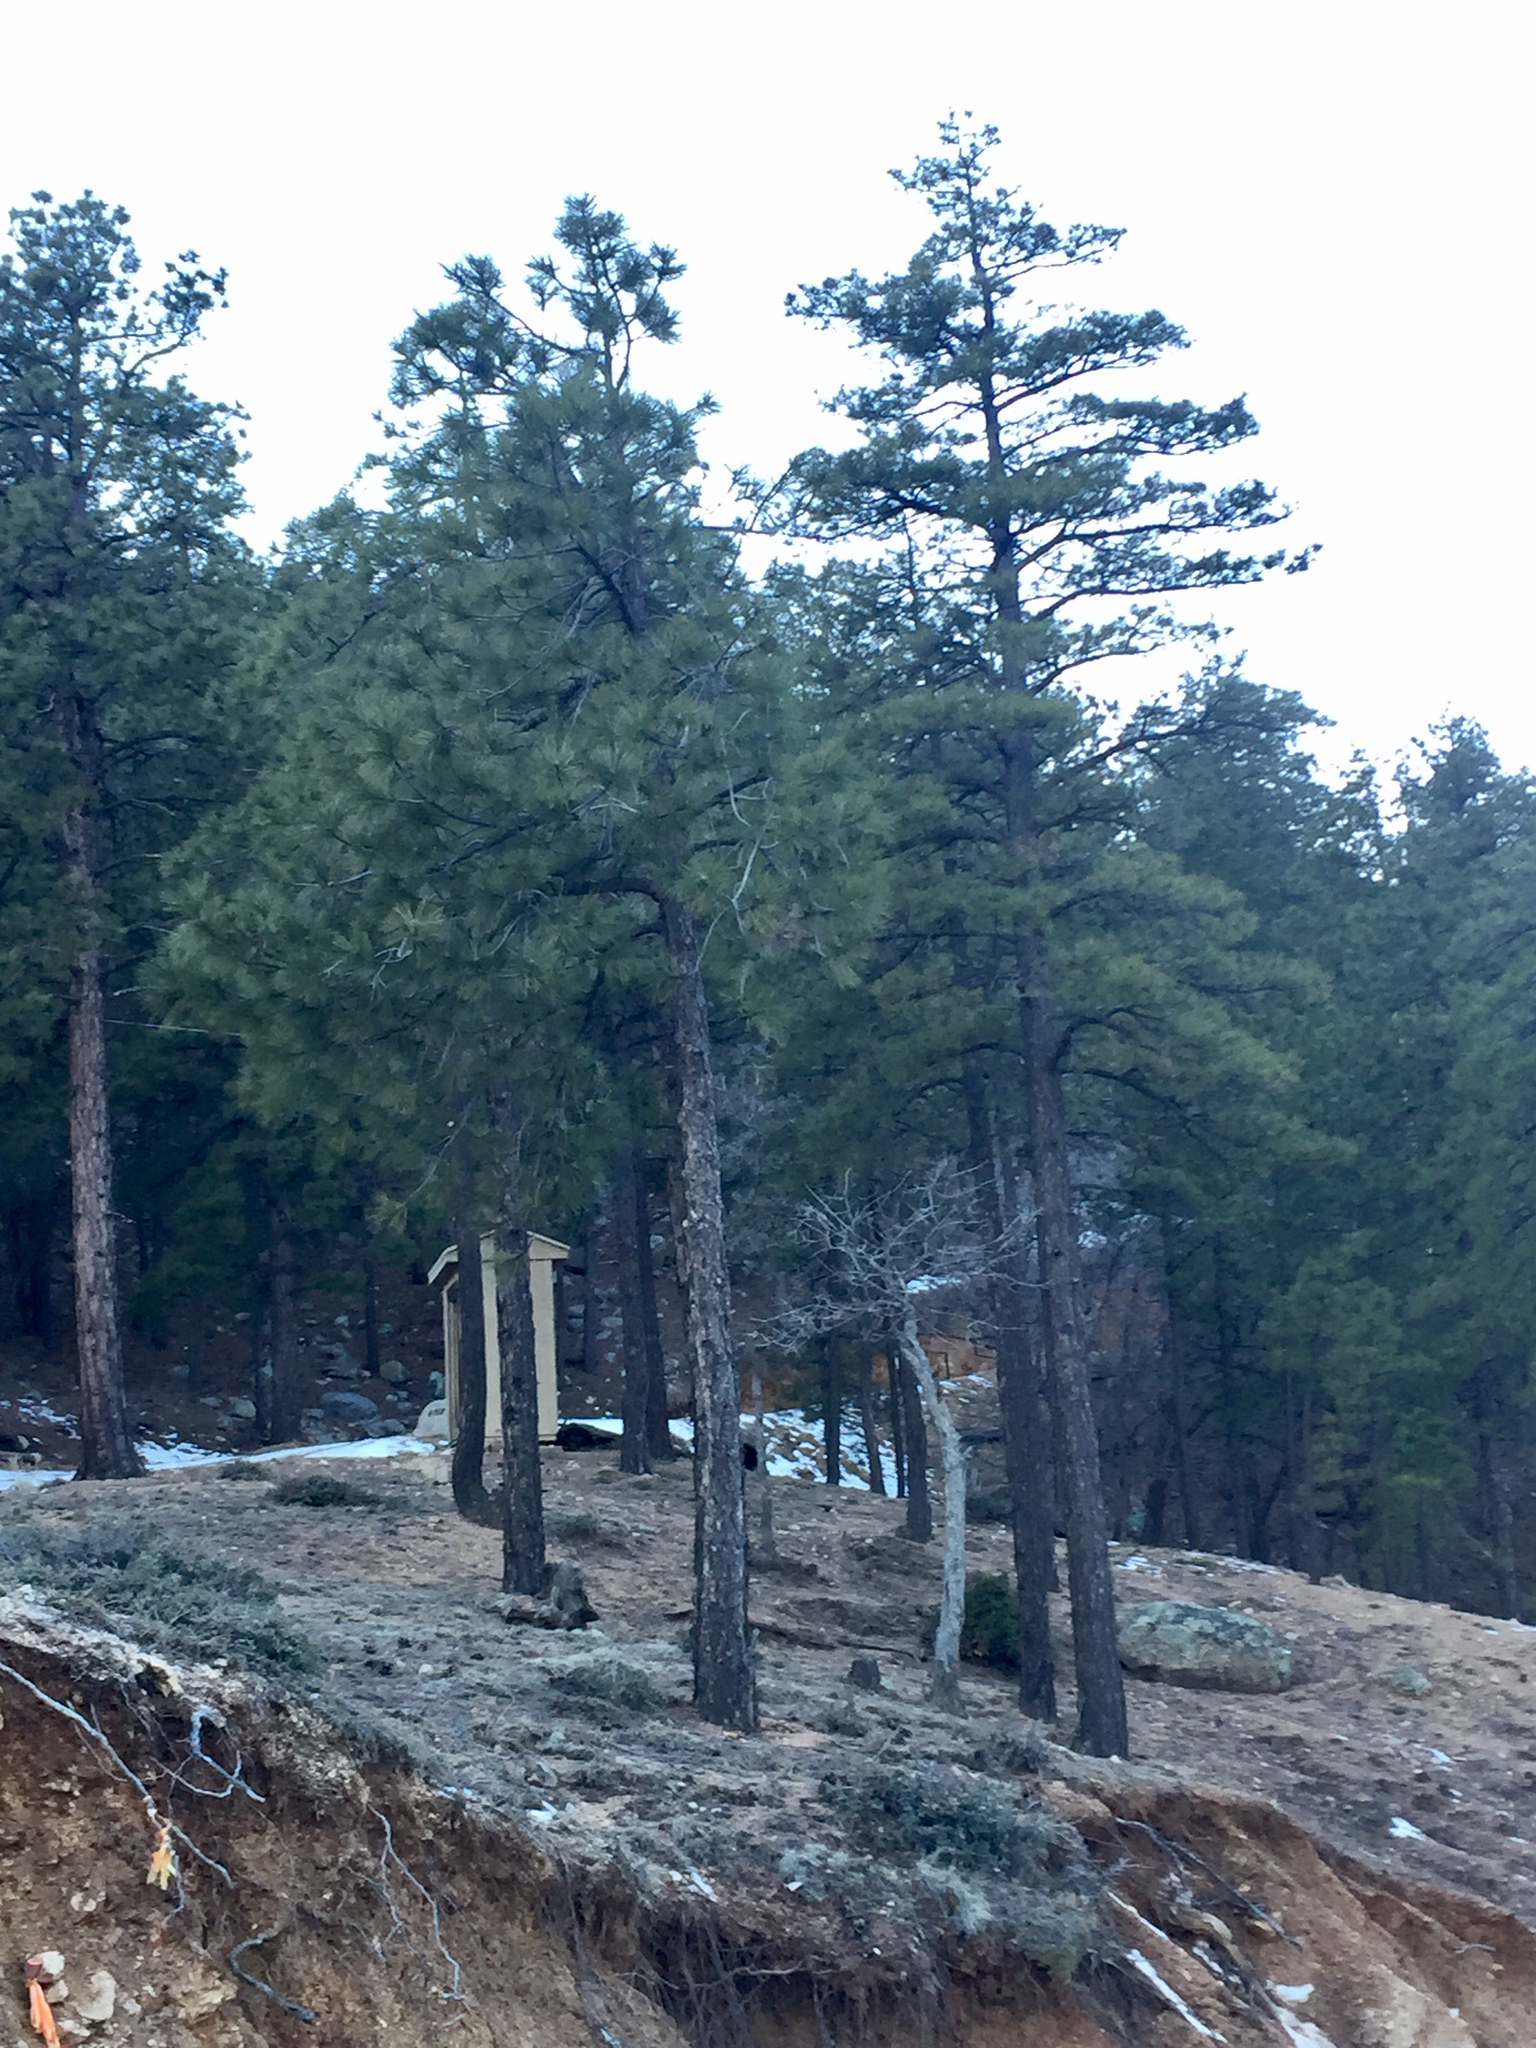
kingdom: Plantae
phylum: Tracheophyta
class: Pinopsida
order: Pinales
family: Pinaceae
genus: Pinus
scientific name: Pinus ponderosa
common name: Western yellow-pine
